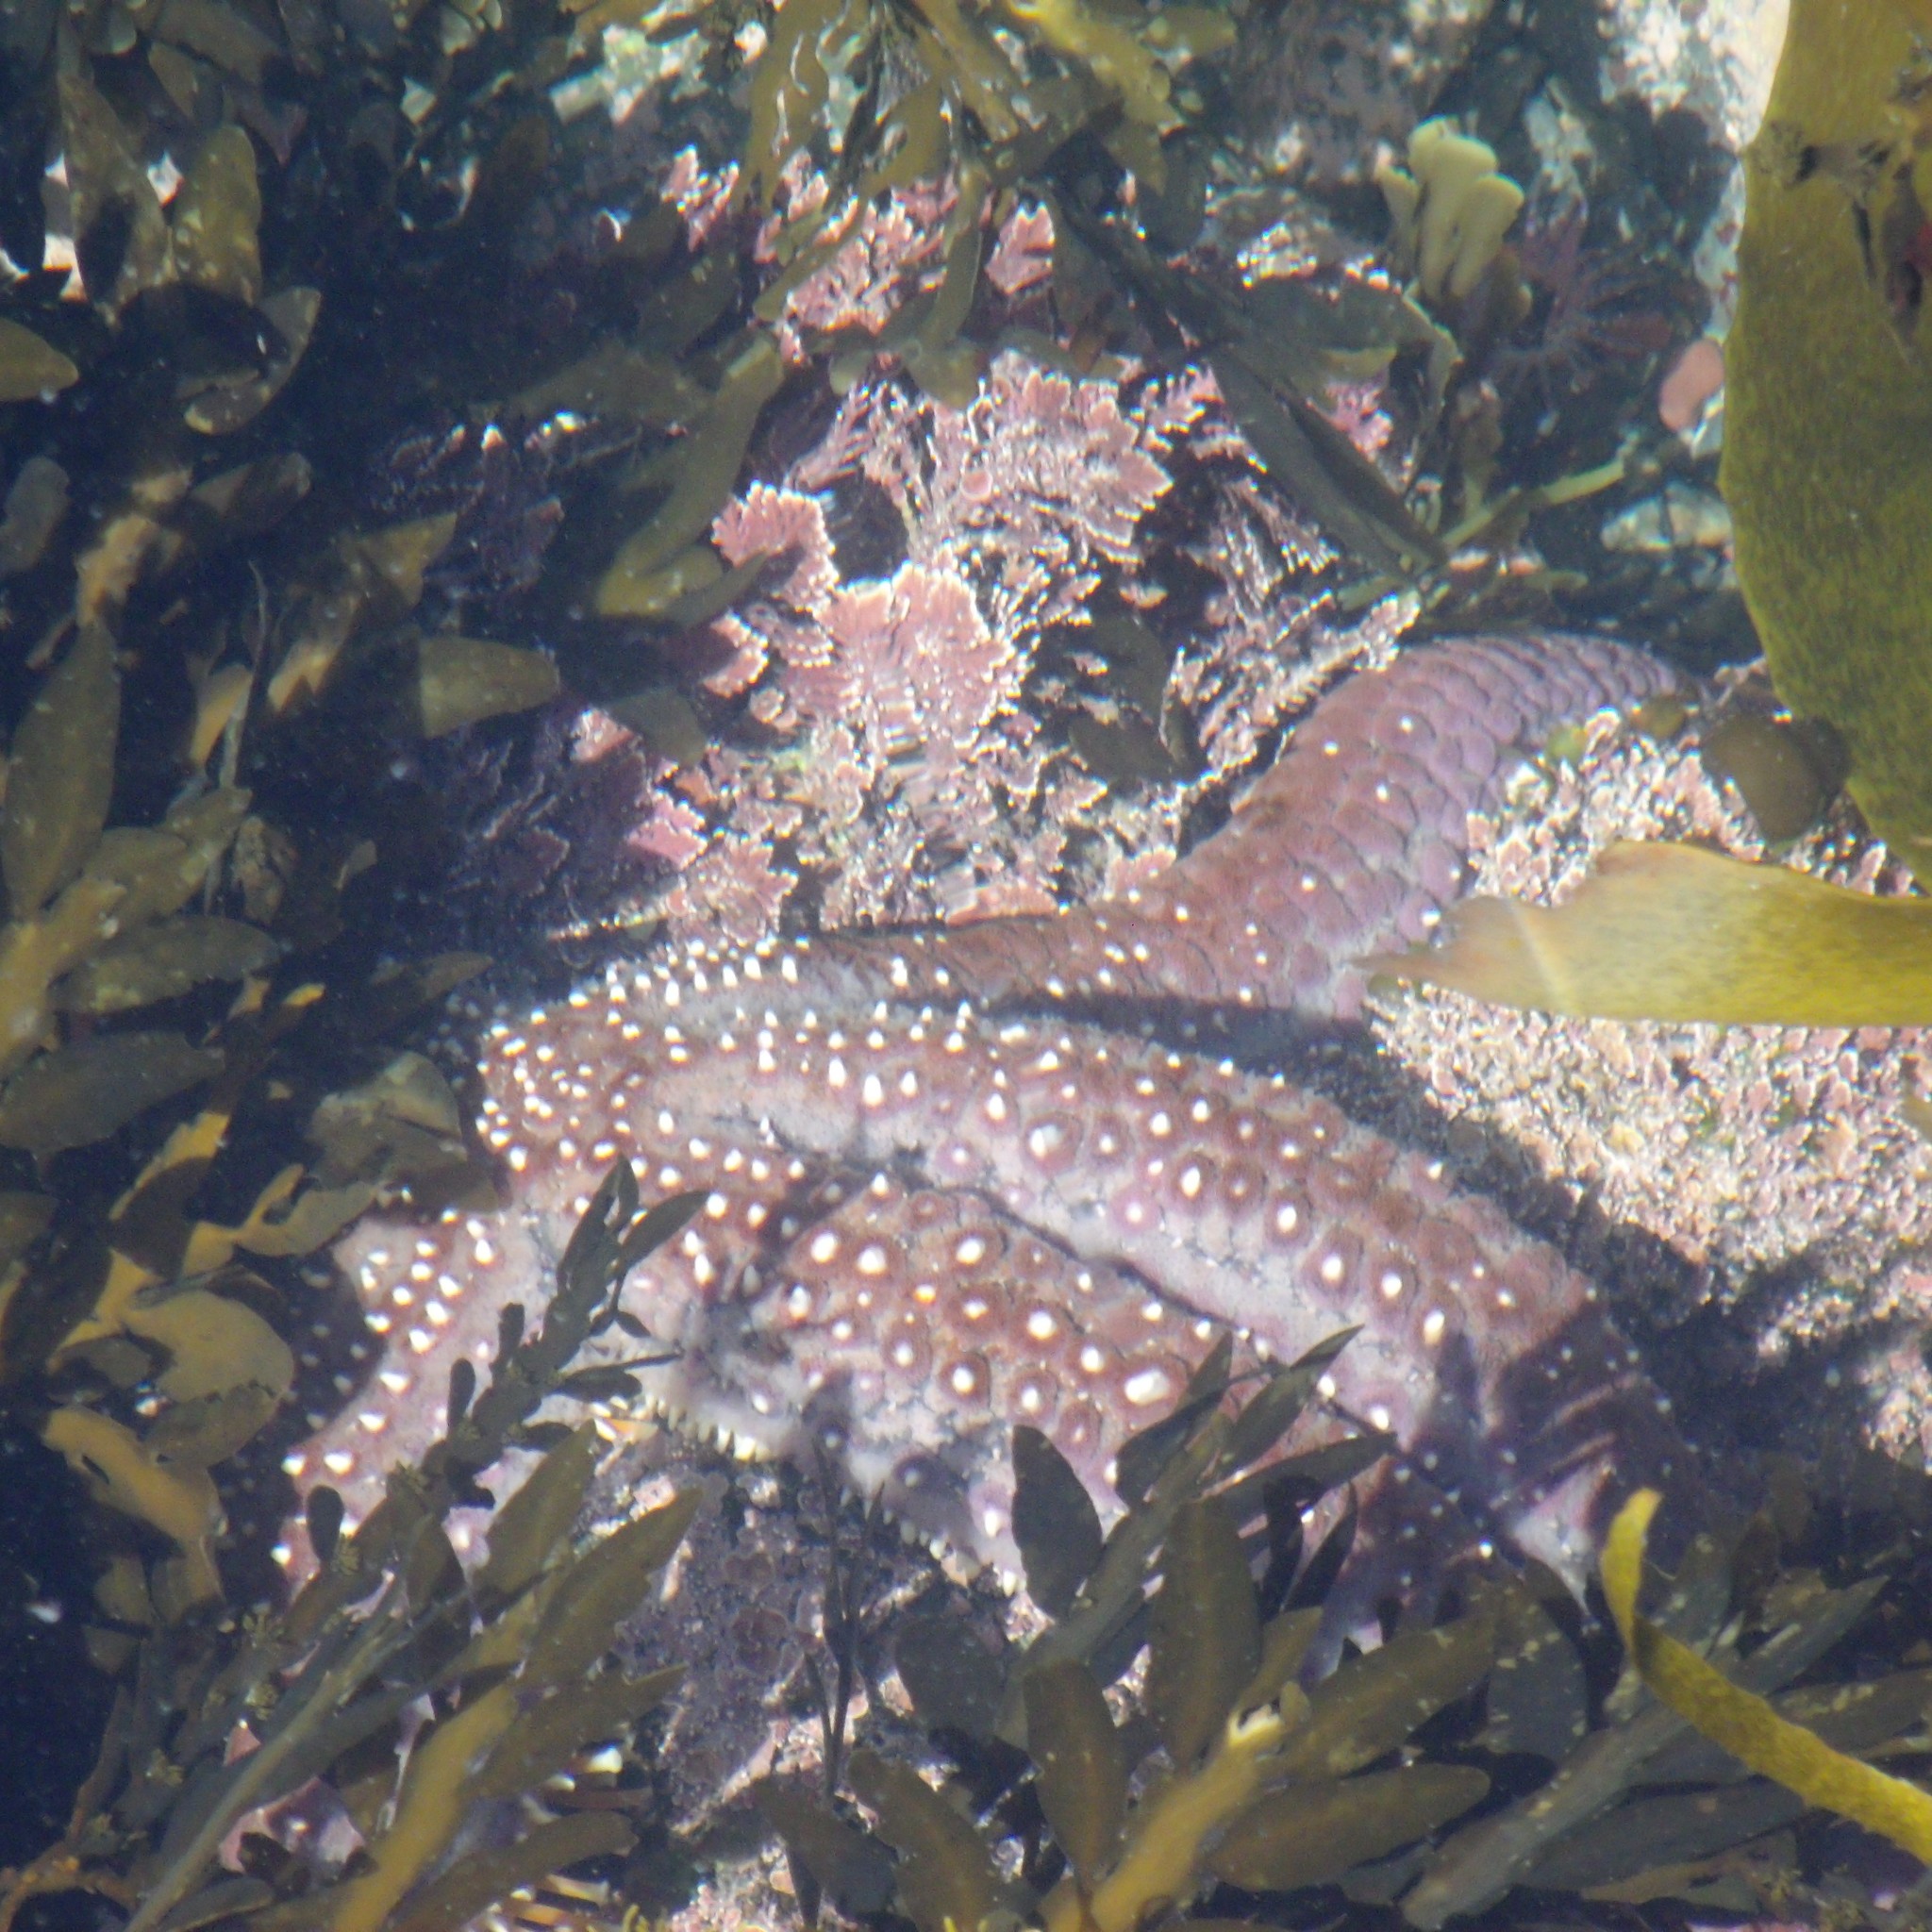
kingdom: Animalia
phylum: Echinodermata
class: Asteroidea
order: Forcipulatida
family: Asteriidae
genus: Astrostole
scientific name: Astrostole scabra
